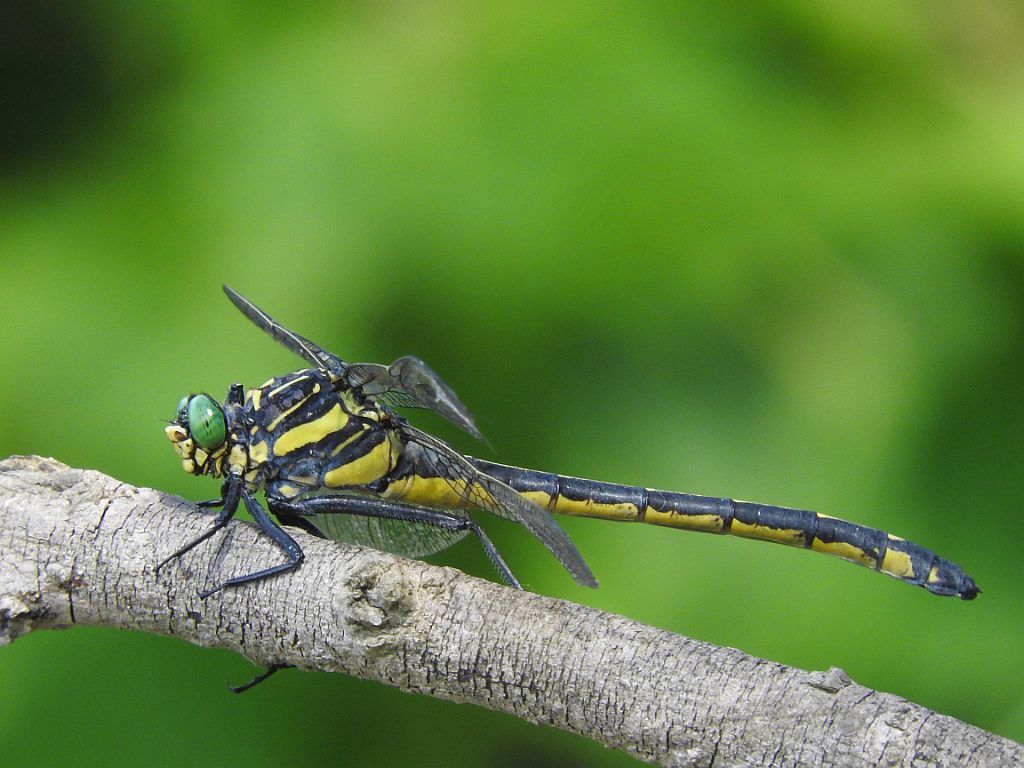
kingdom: Animalia
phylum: Arthropoda
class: Insecta
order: Odonata
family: Gomphidae
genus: Hagenius
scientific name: Hagenius brevistylus
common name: Dragonhunter
